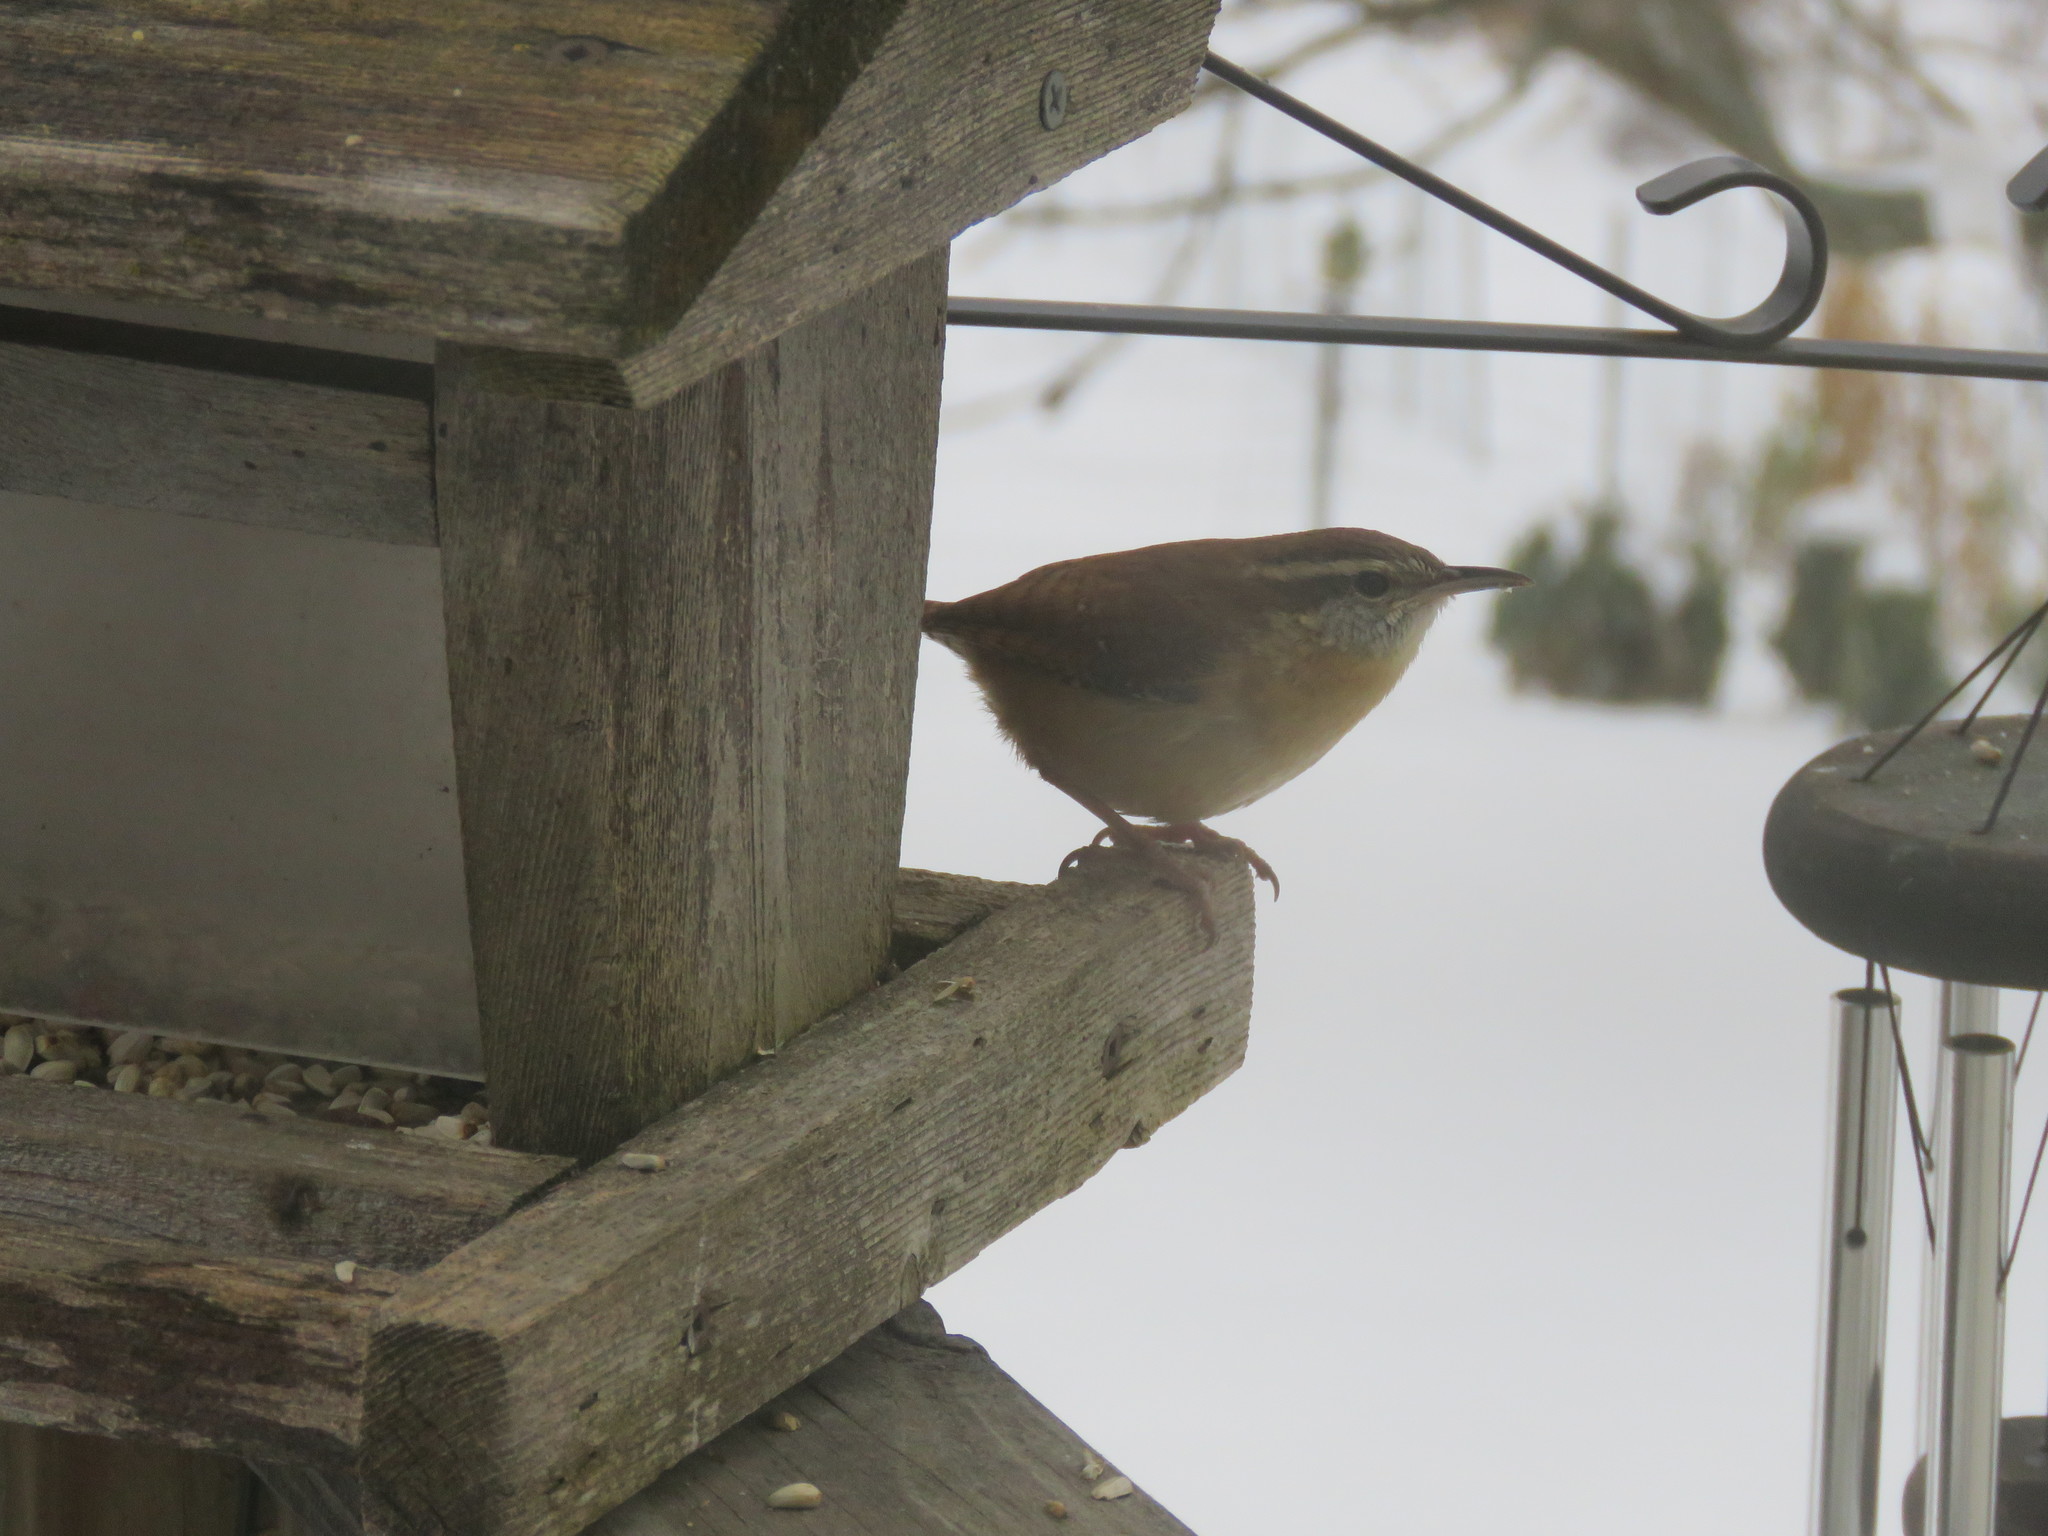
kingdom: Animalia
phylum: Chordata
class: Aves
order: Passeriformes
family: Troglodytidae
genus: Thryothorus
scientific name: Thryothorus ludovicianus
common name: Carolina wren
